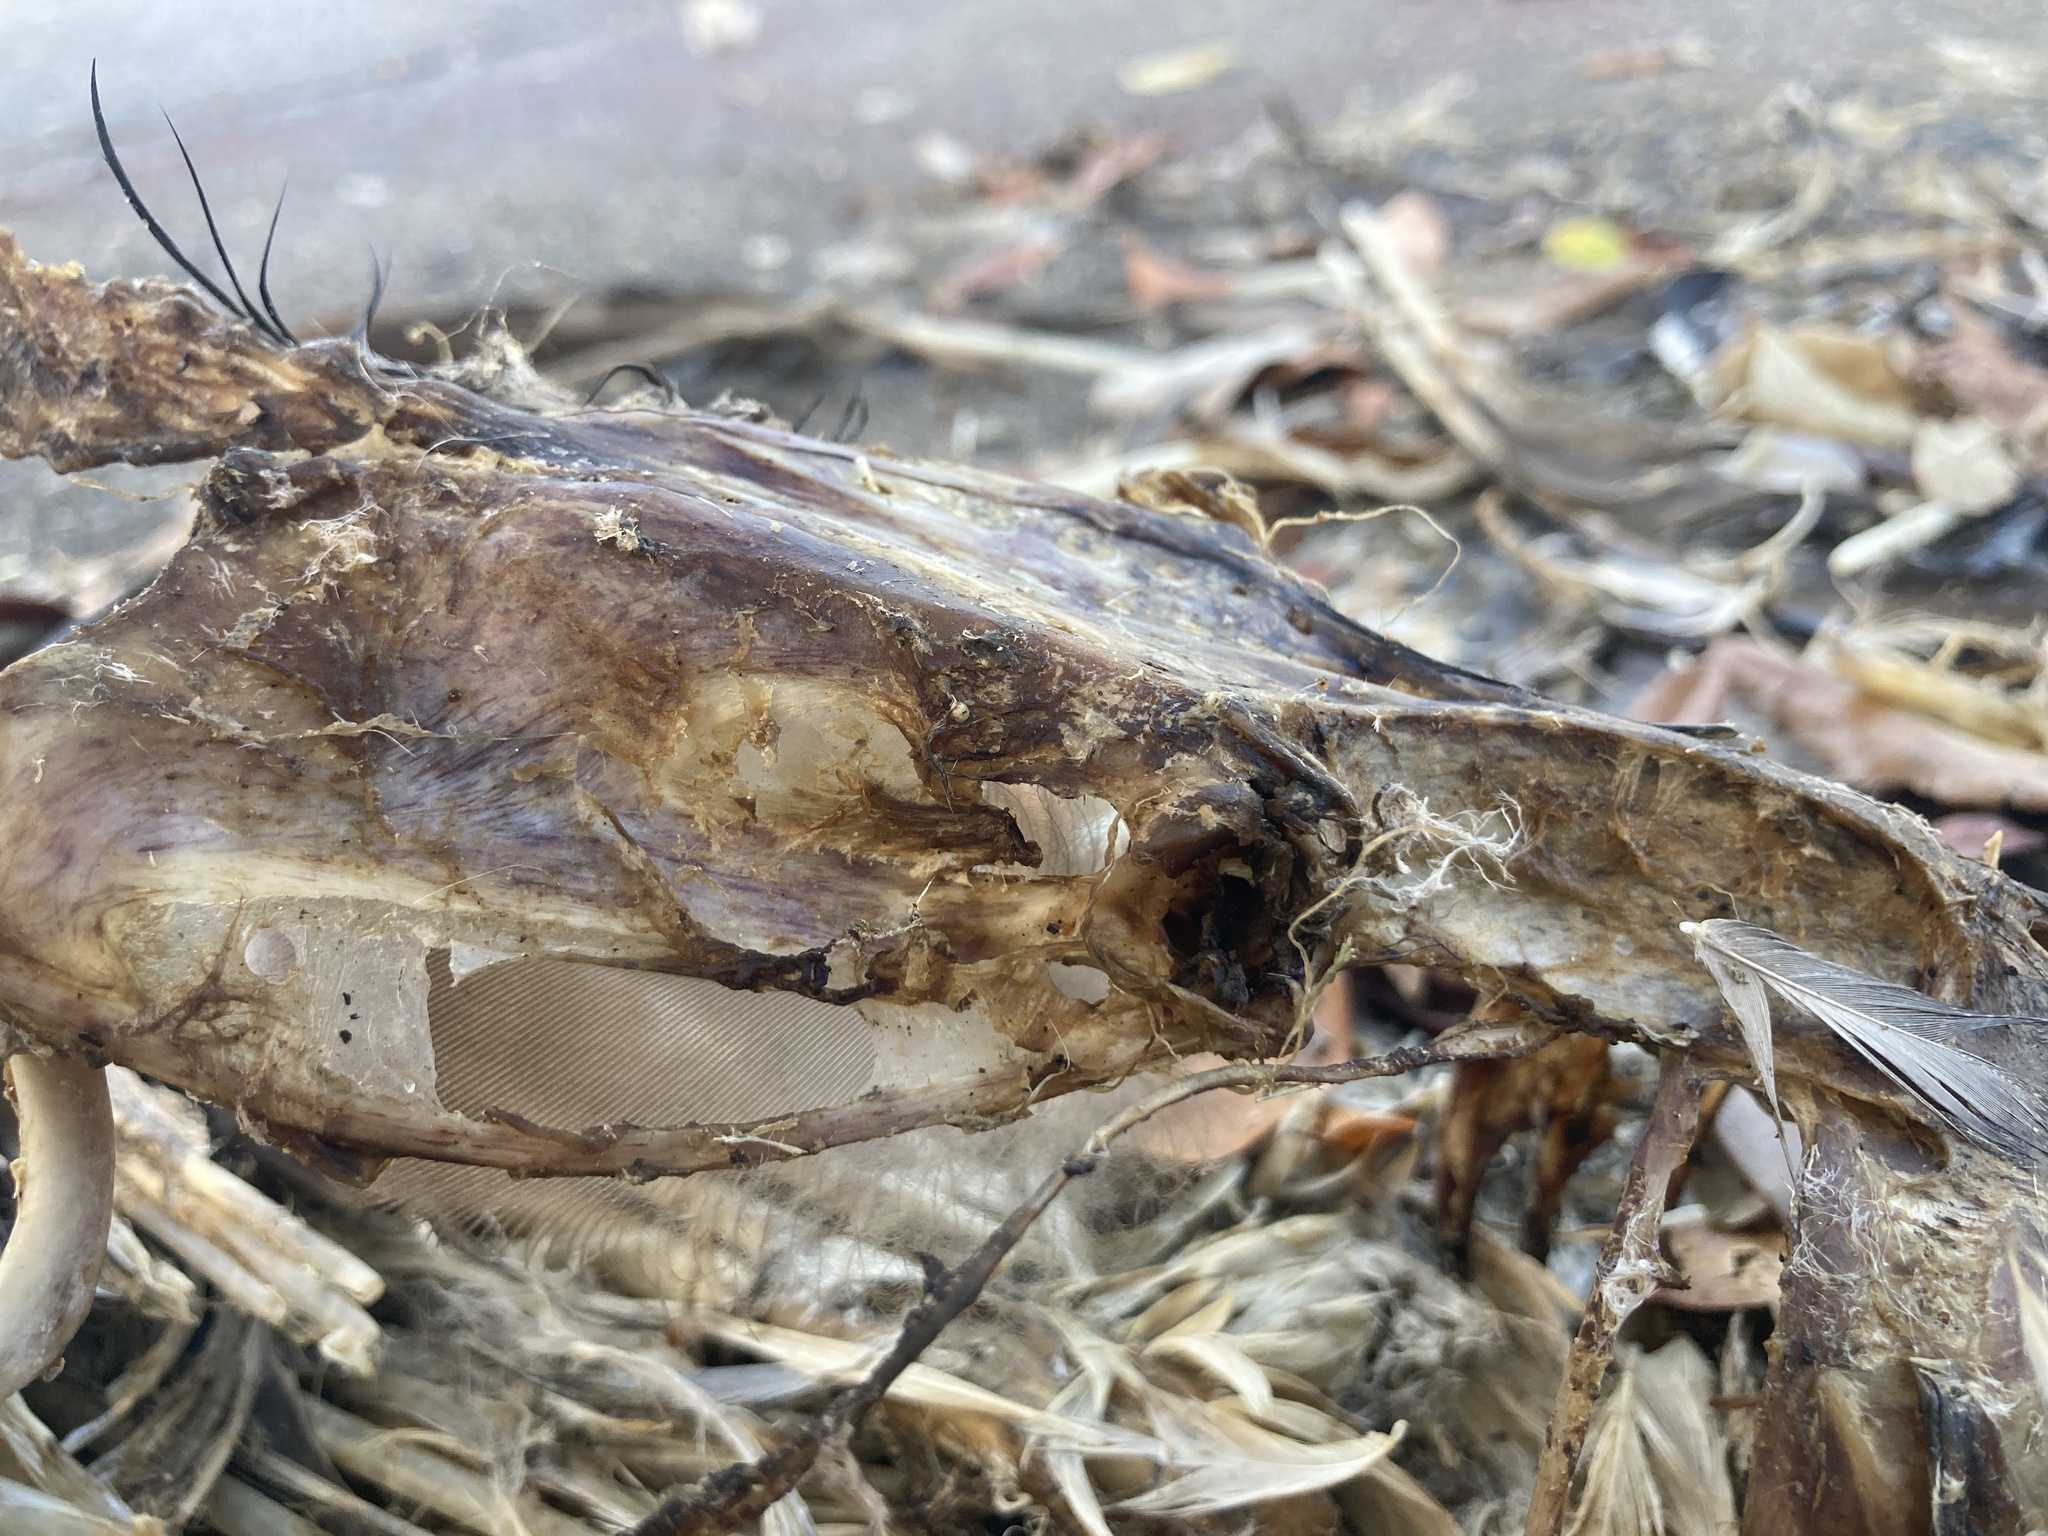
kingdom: Animalia
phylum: Chordata
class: Aves
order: Anseriformes
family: Anatidae
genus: Alopochen
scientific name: Alopochen aegyptiaca
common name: Egyptian goose
